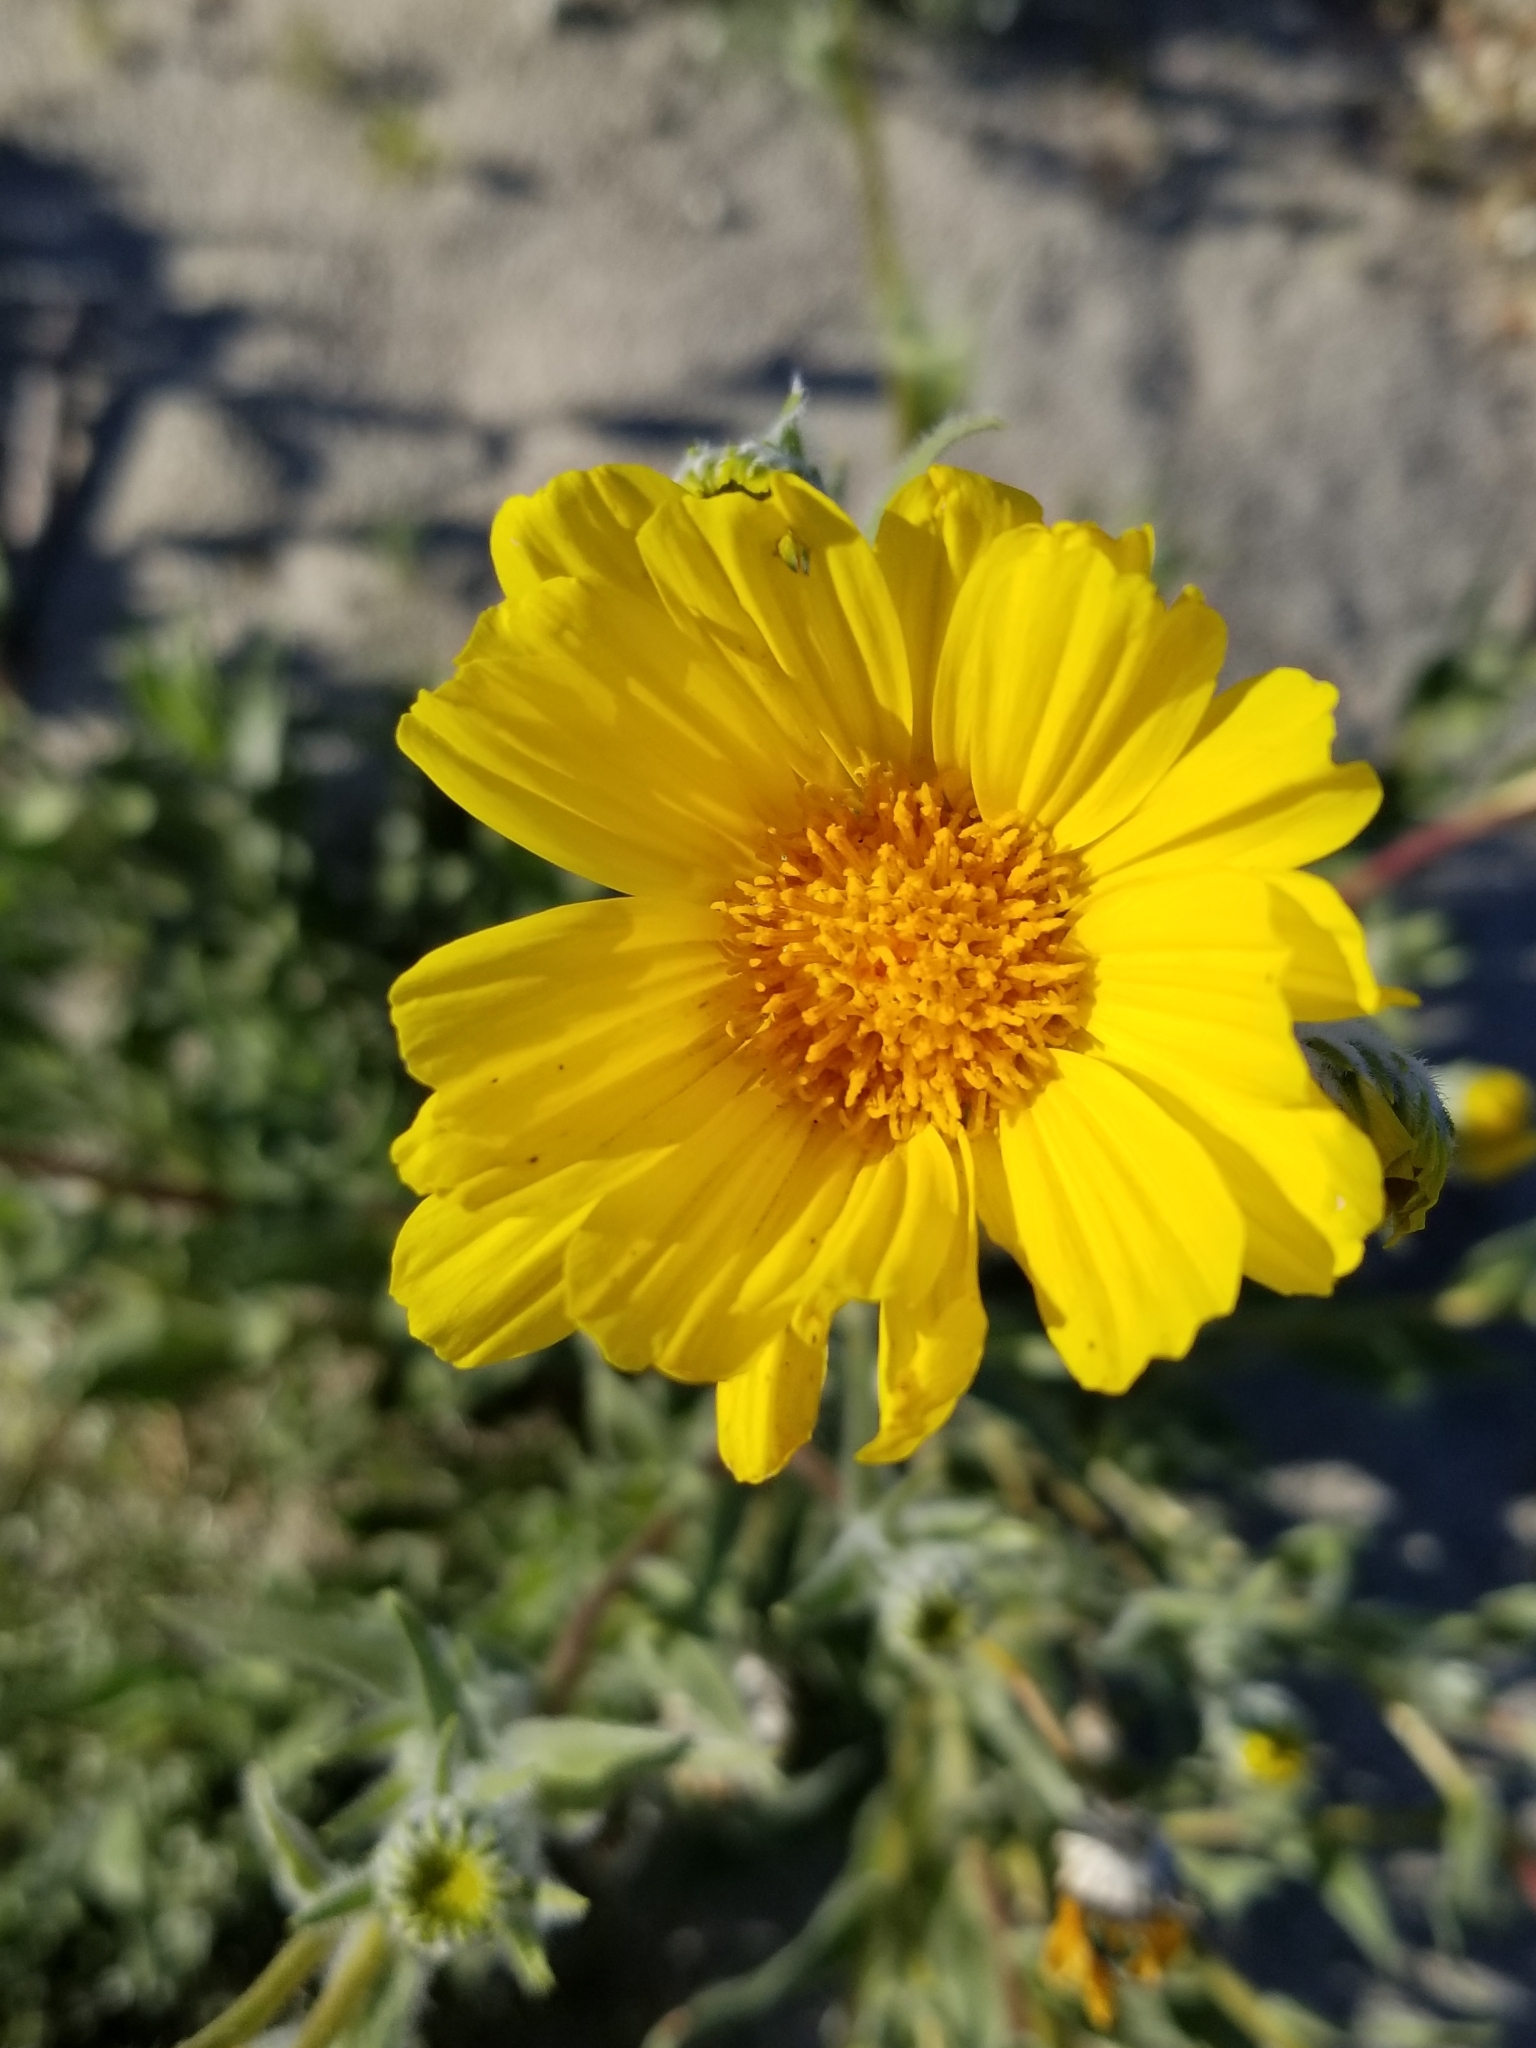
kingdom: Plantae
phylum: Tracheophyta
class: Magnoliopsida
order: Asterales
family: Asteraceae
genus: Geraea
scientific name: Geraea canescens
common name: Desert-gold
